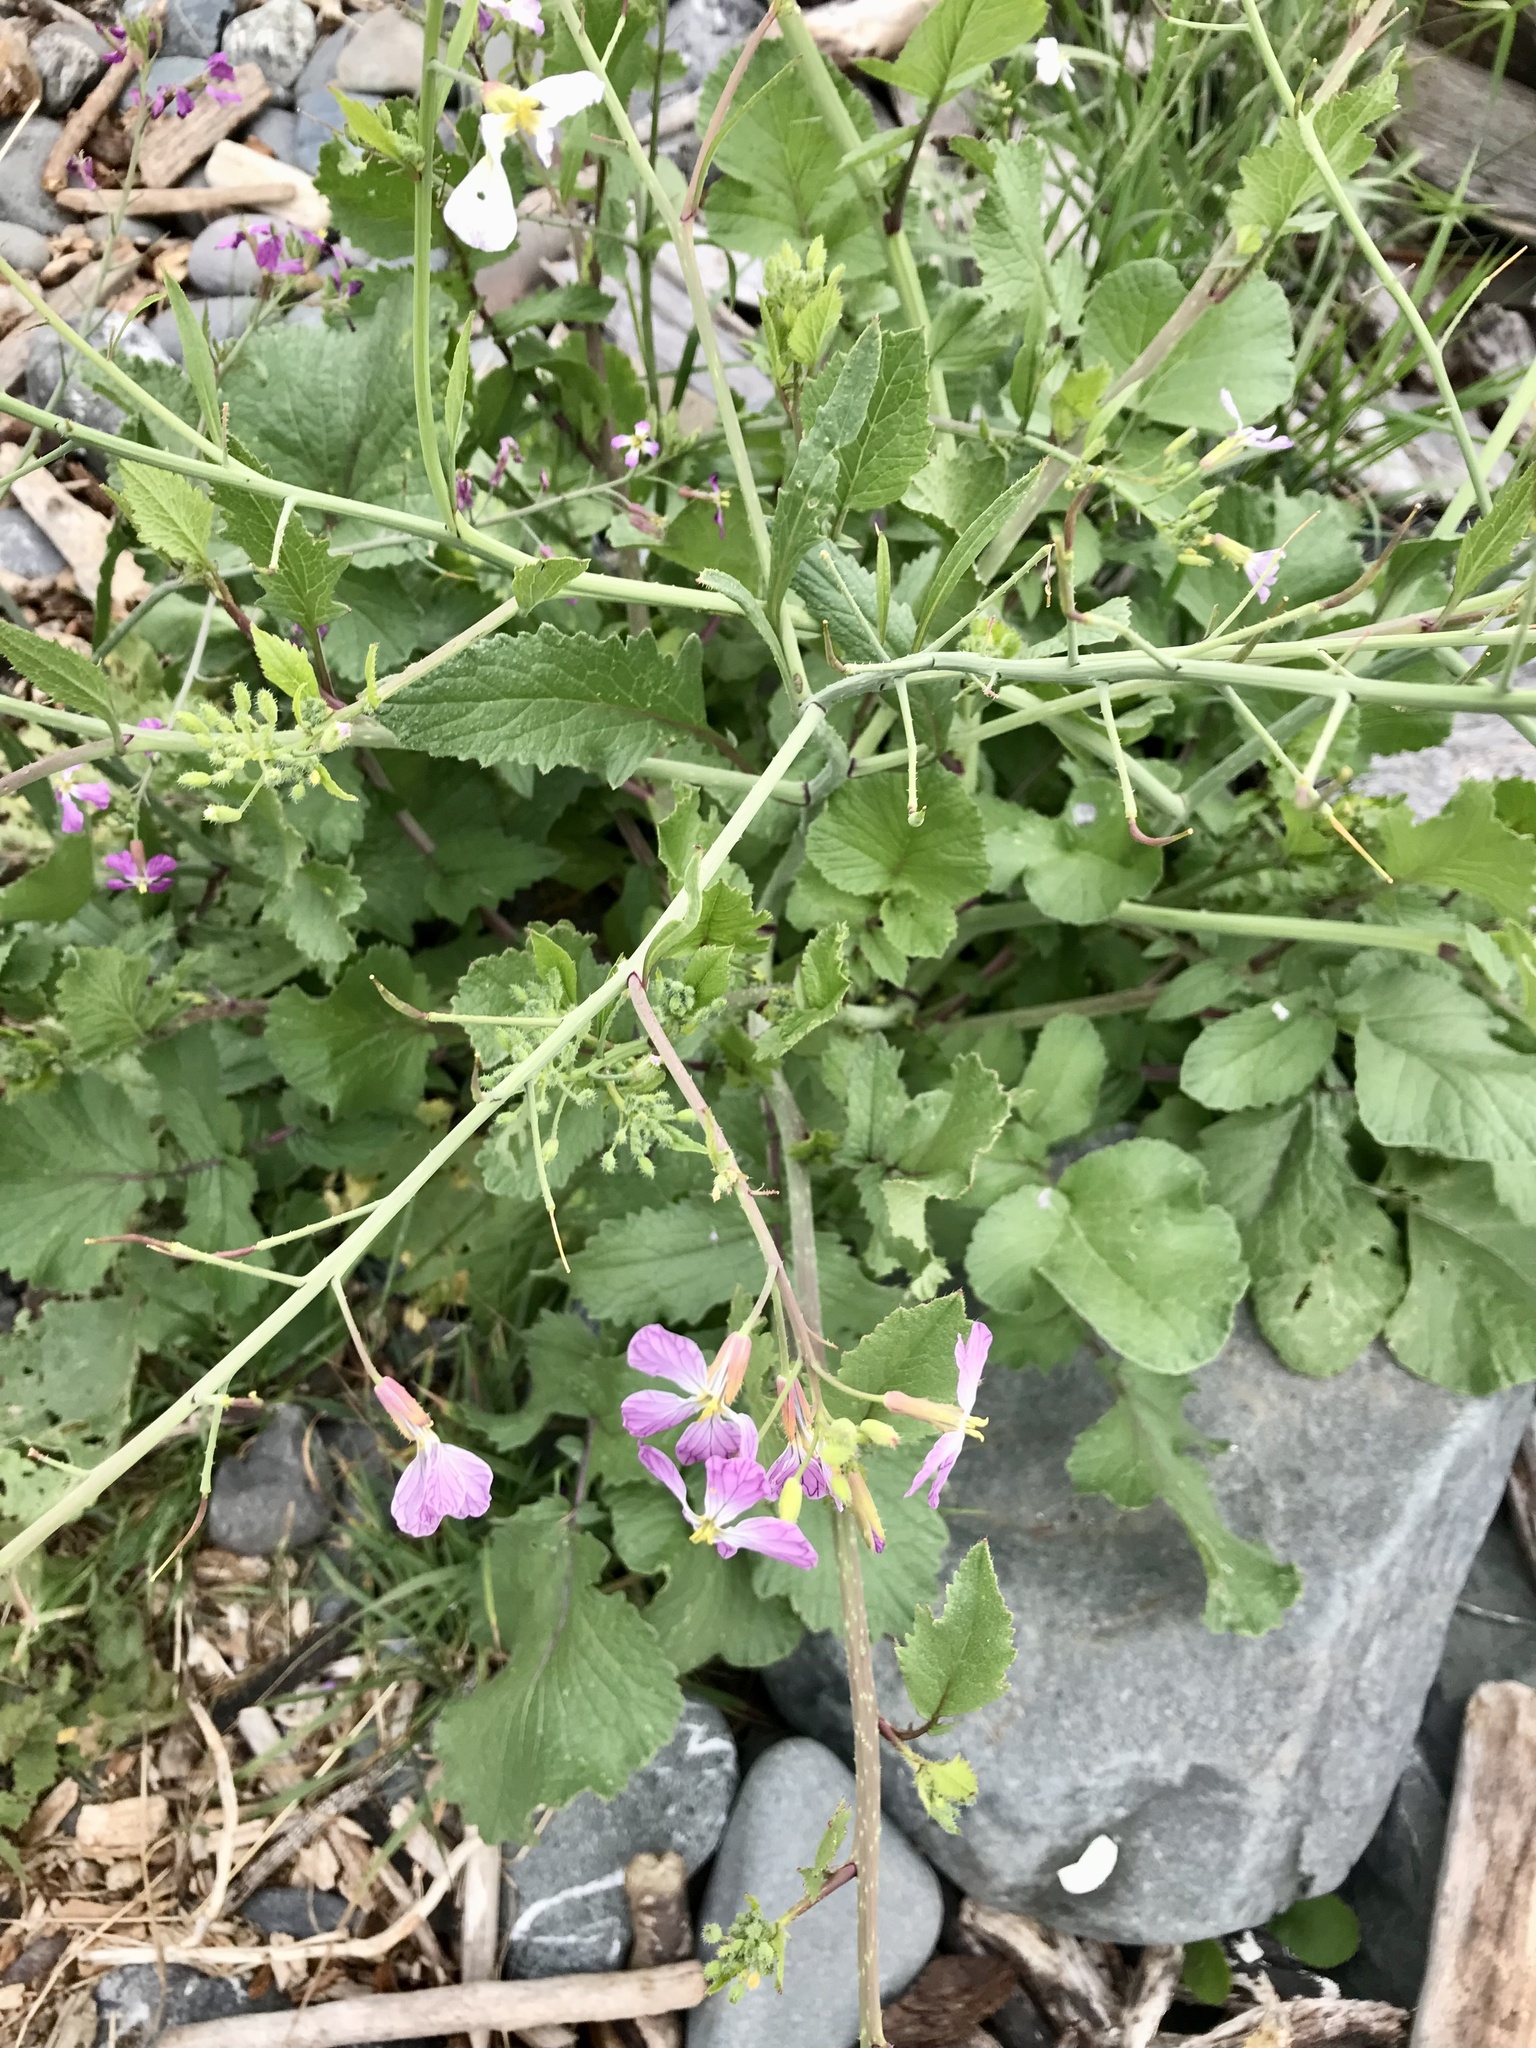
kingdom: Plantae
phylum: Tracheophyta
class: Magnoliopsida
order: Brassicales
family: Brassicaceae
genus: Raphanus
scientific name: Raphanus sativus
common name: Cultivated radish
